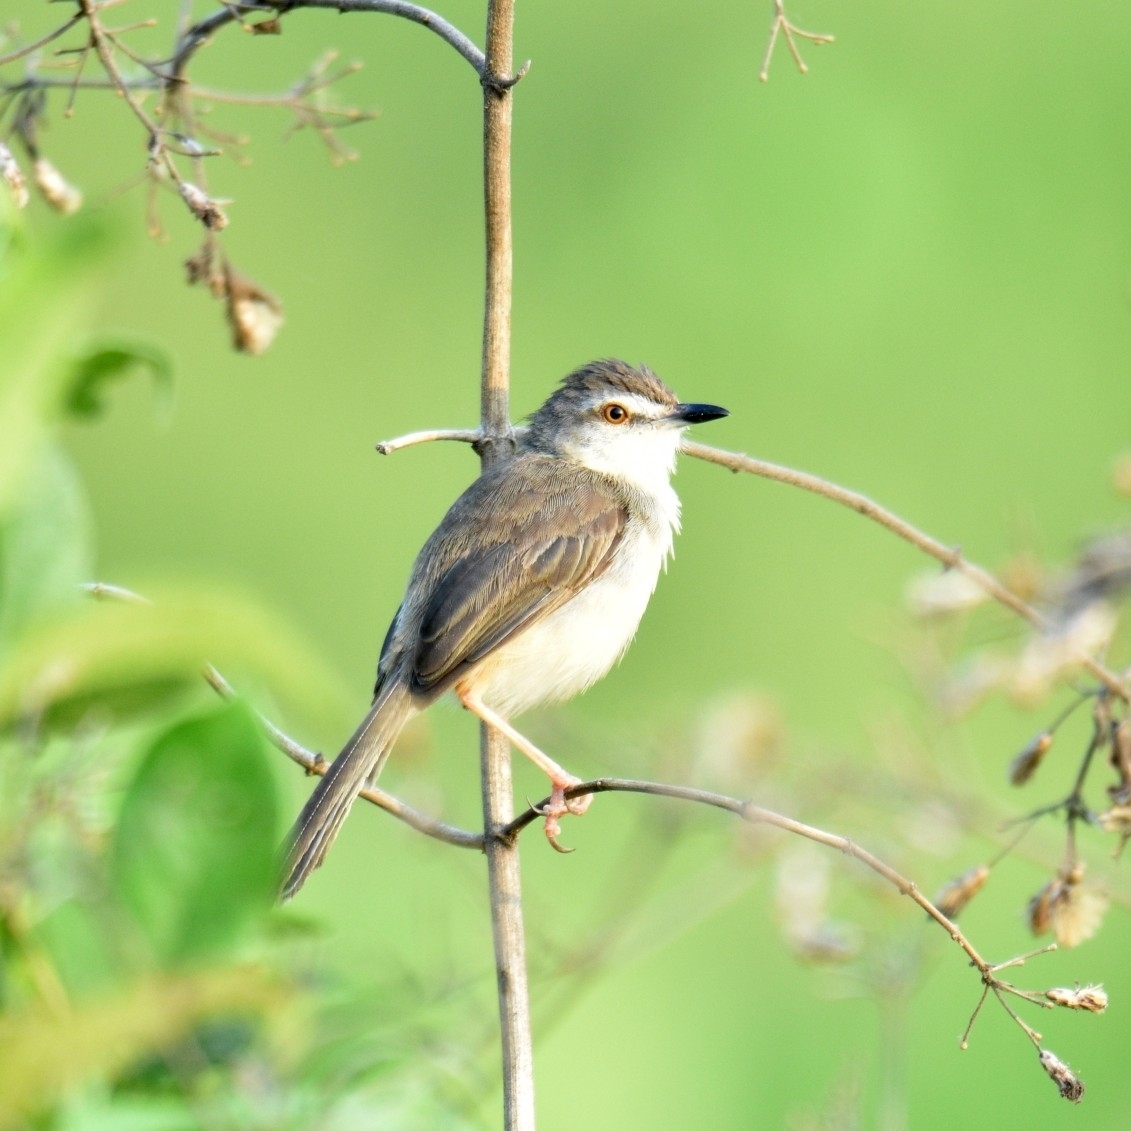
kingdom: Animalia
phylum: Chordata
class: Aves
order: Passeriformes
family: Cisticolidae
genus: Prinia
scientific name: Prinia inornata
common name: Plain prinia
